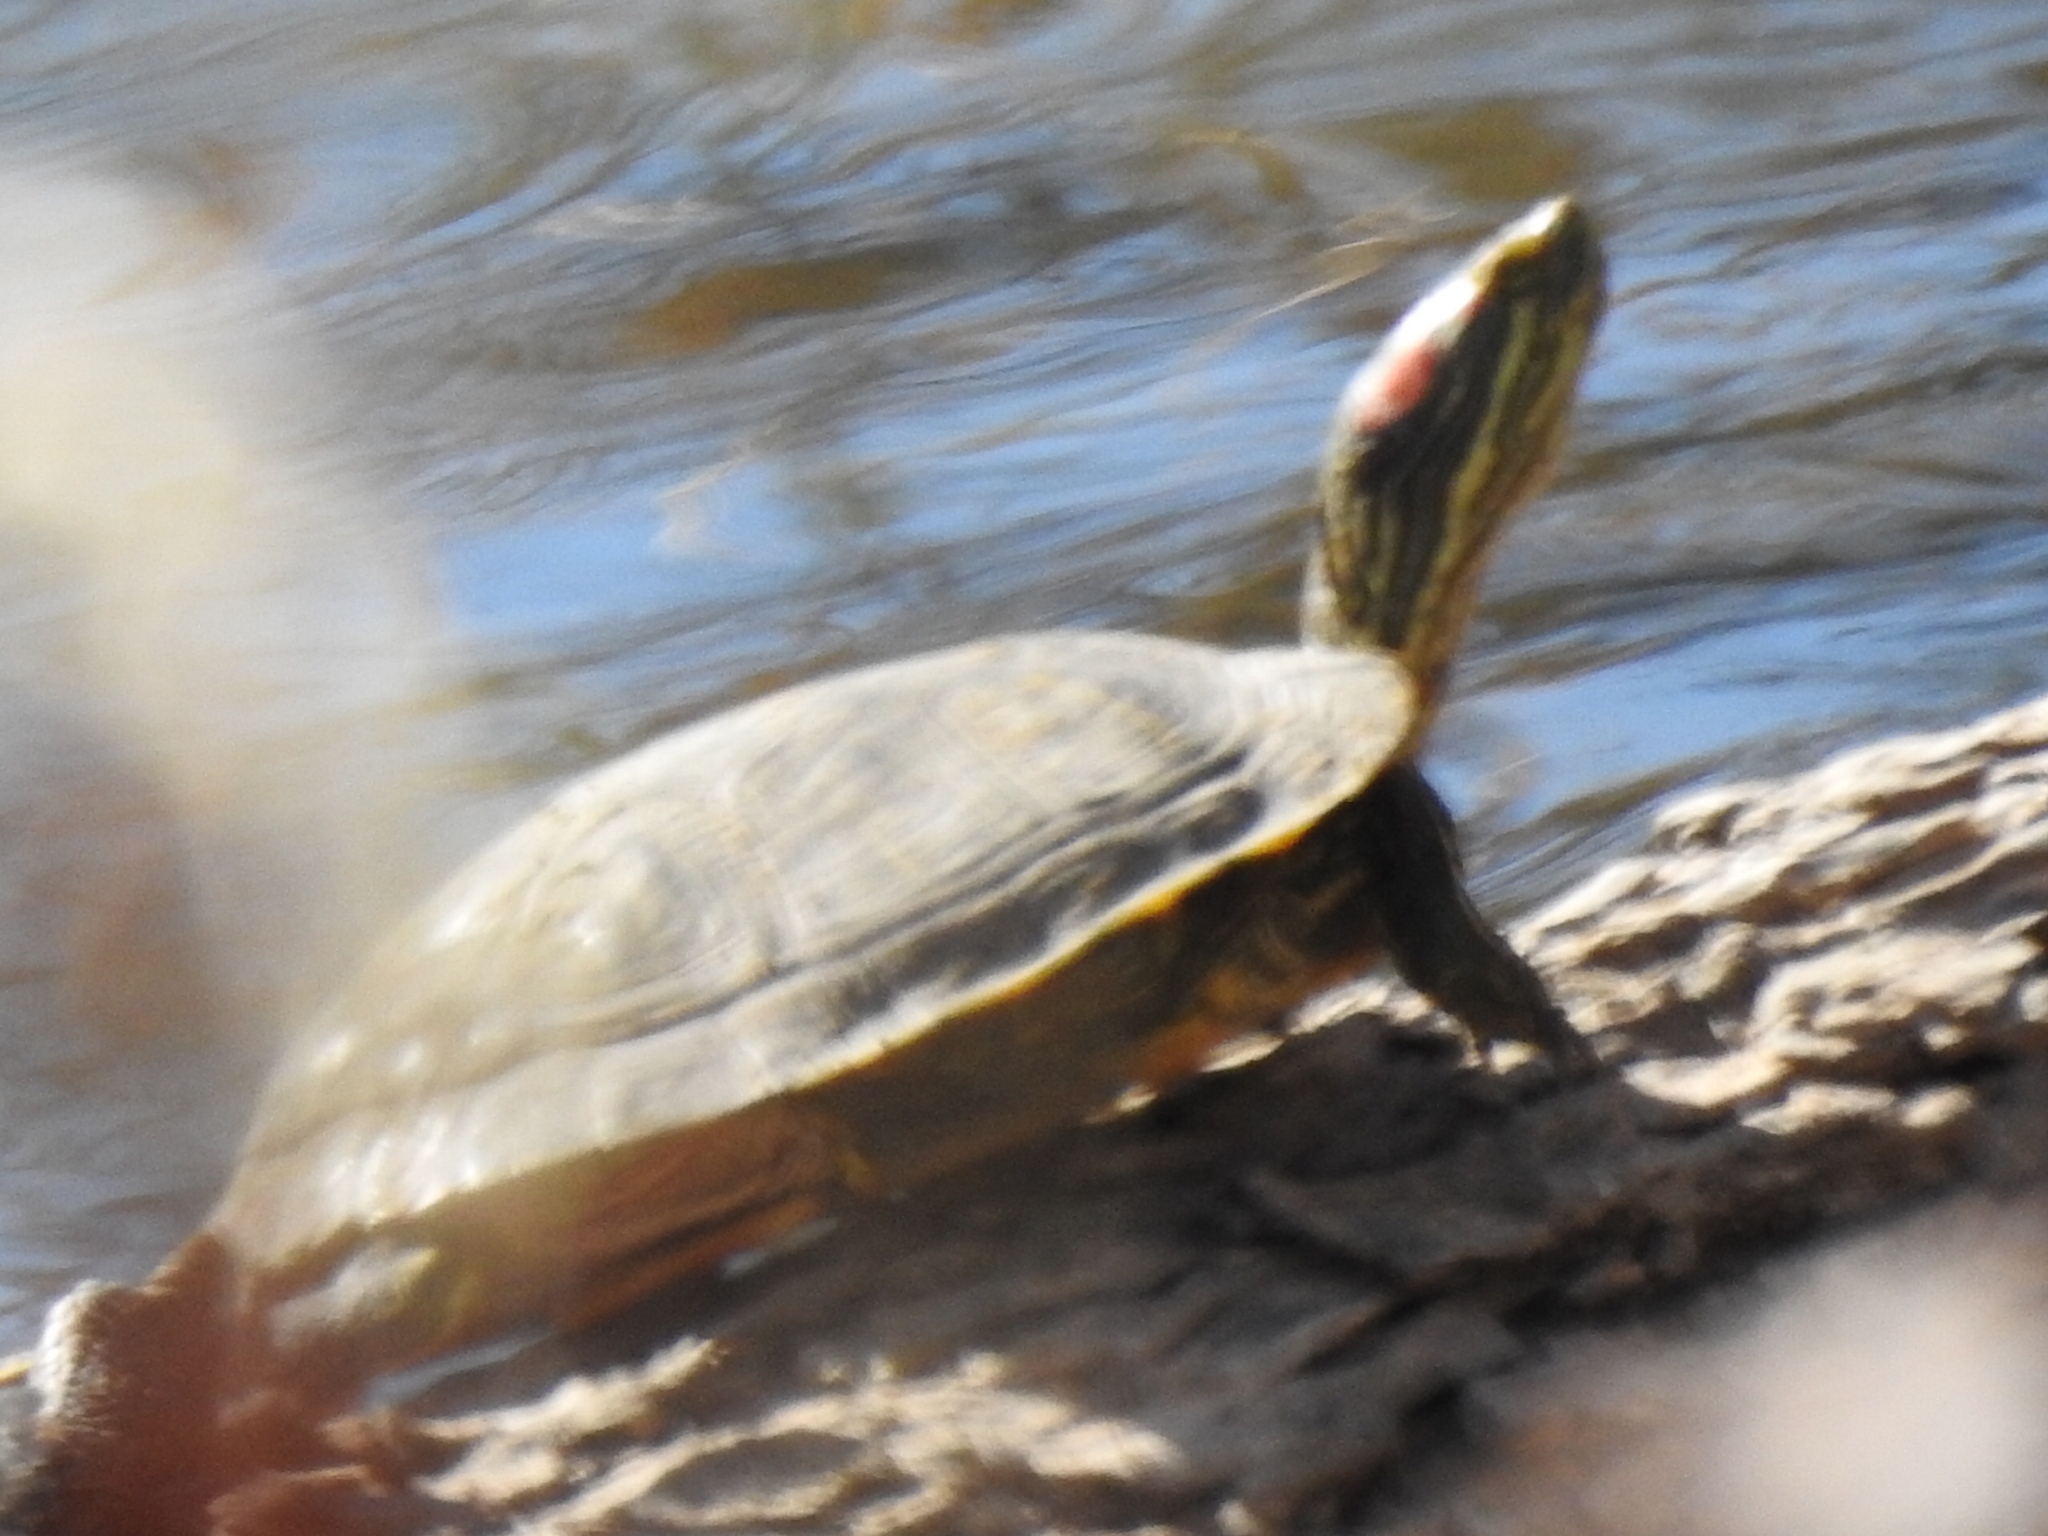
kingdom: Animalia
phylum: Chordata
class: Testudines
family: Emydidae
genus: Trachemys
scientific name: Trachemys scripta
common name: Slider
